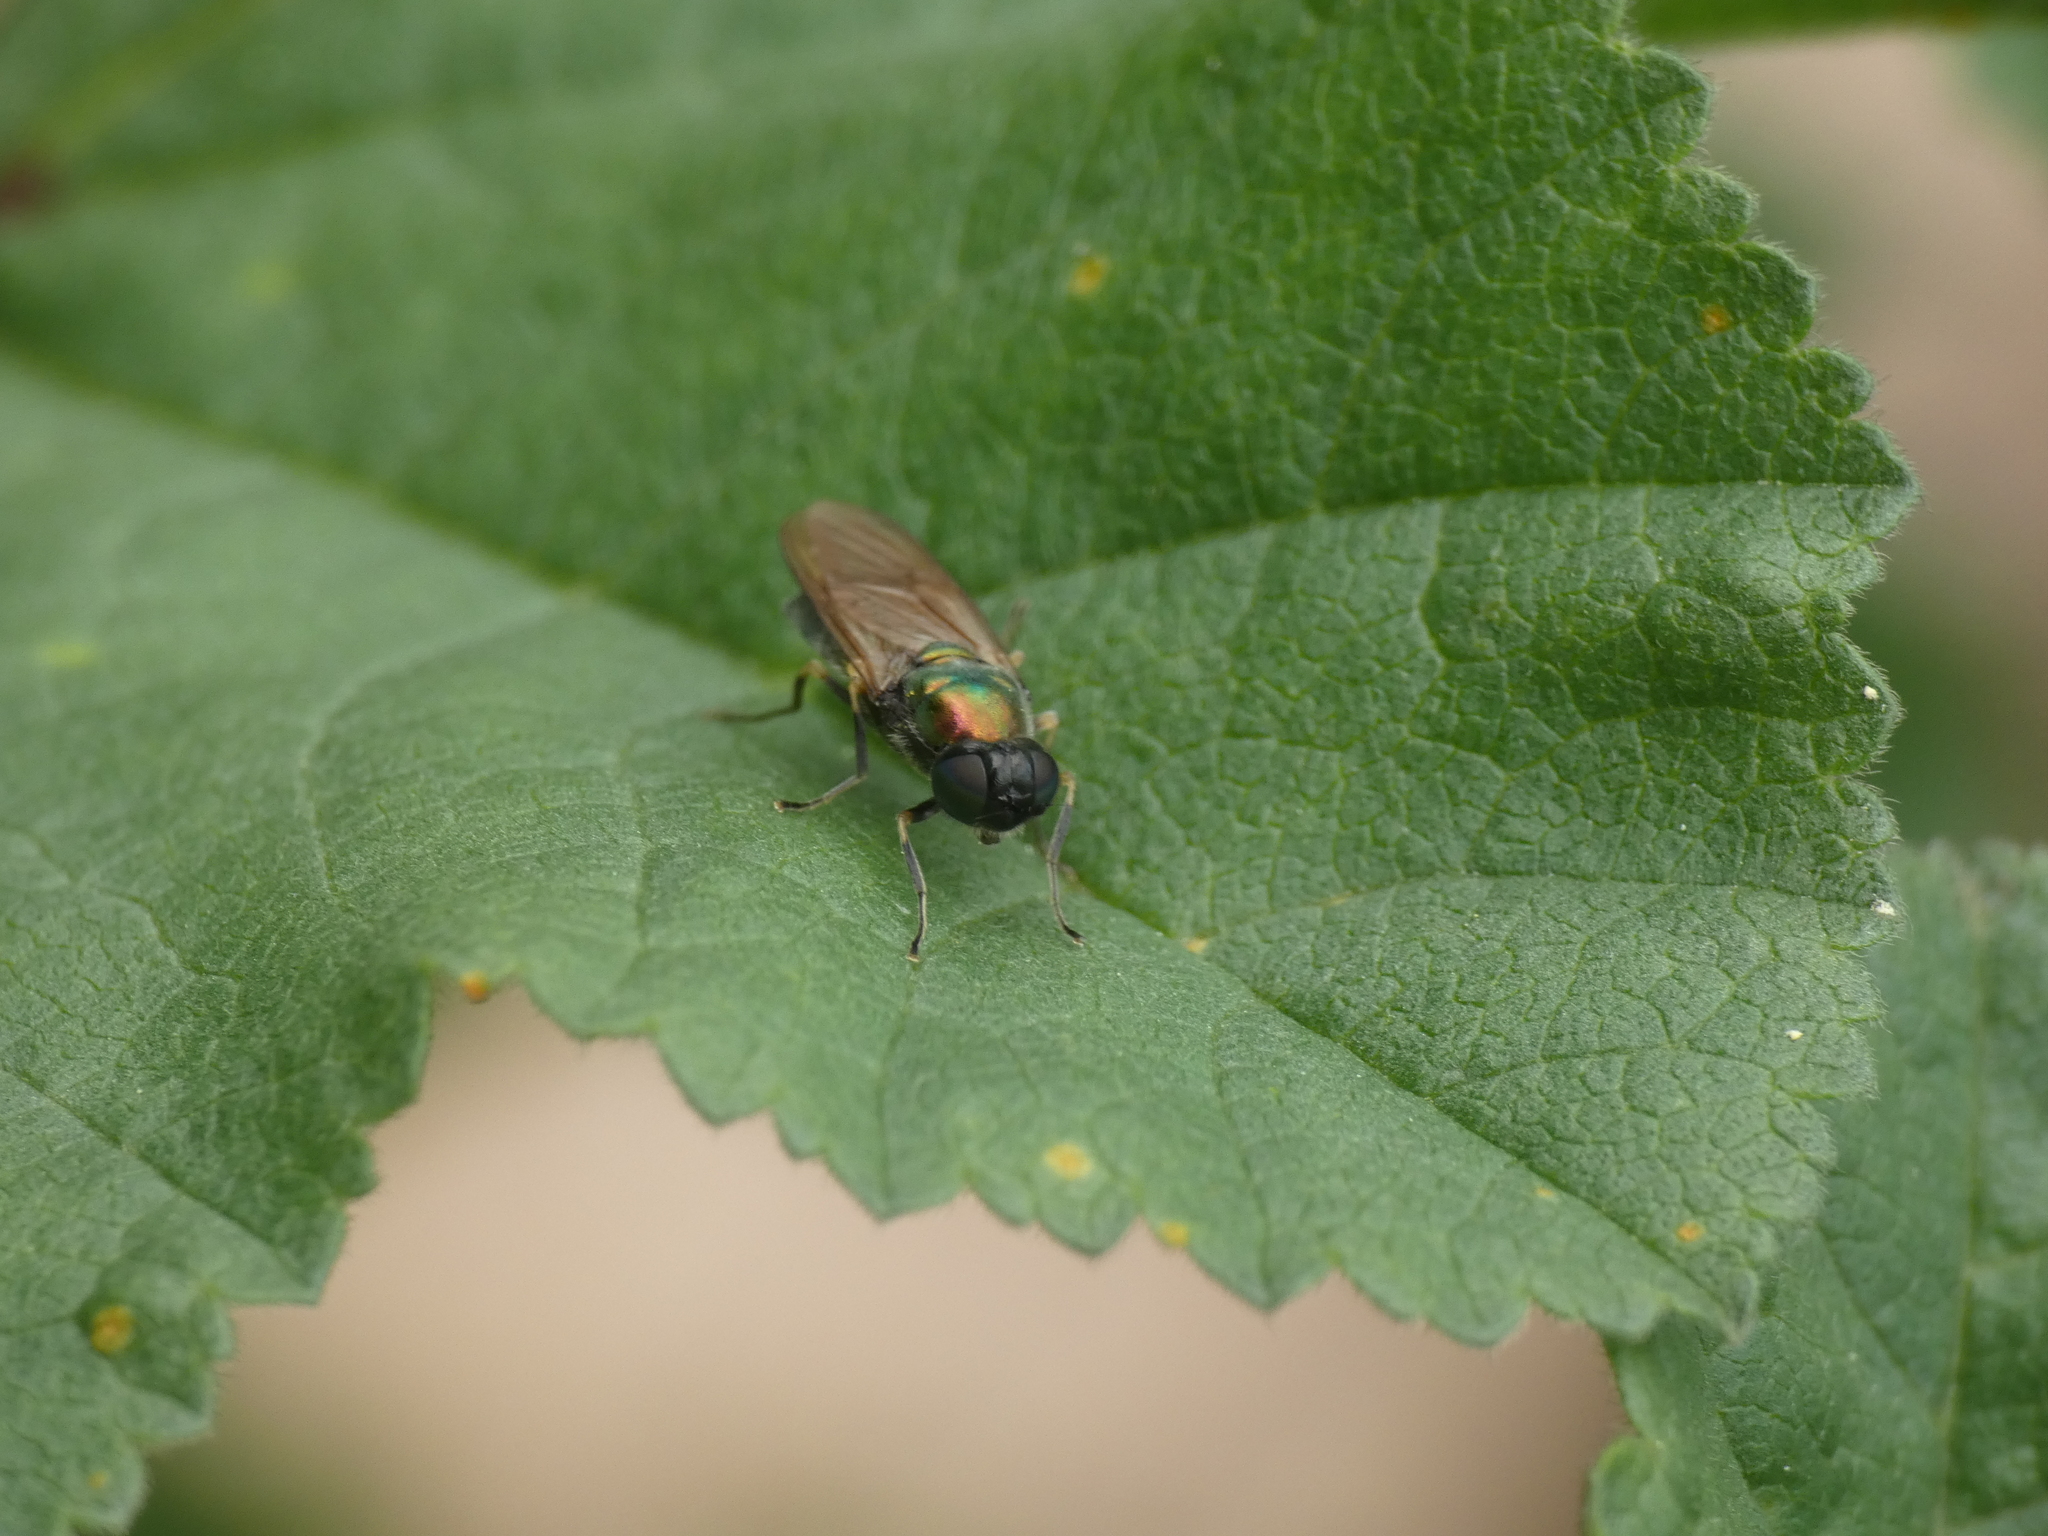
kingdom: Animalia
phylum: Arthropoda
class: Insecta
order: Diptera
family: Stratiomyidae
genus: Chloromyia
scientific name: Chloromyia formosa
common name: Soldier fly
